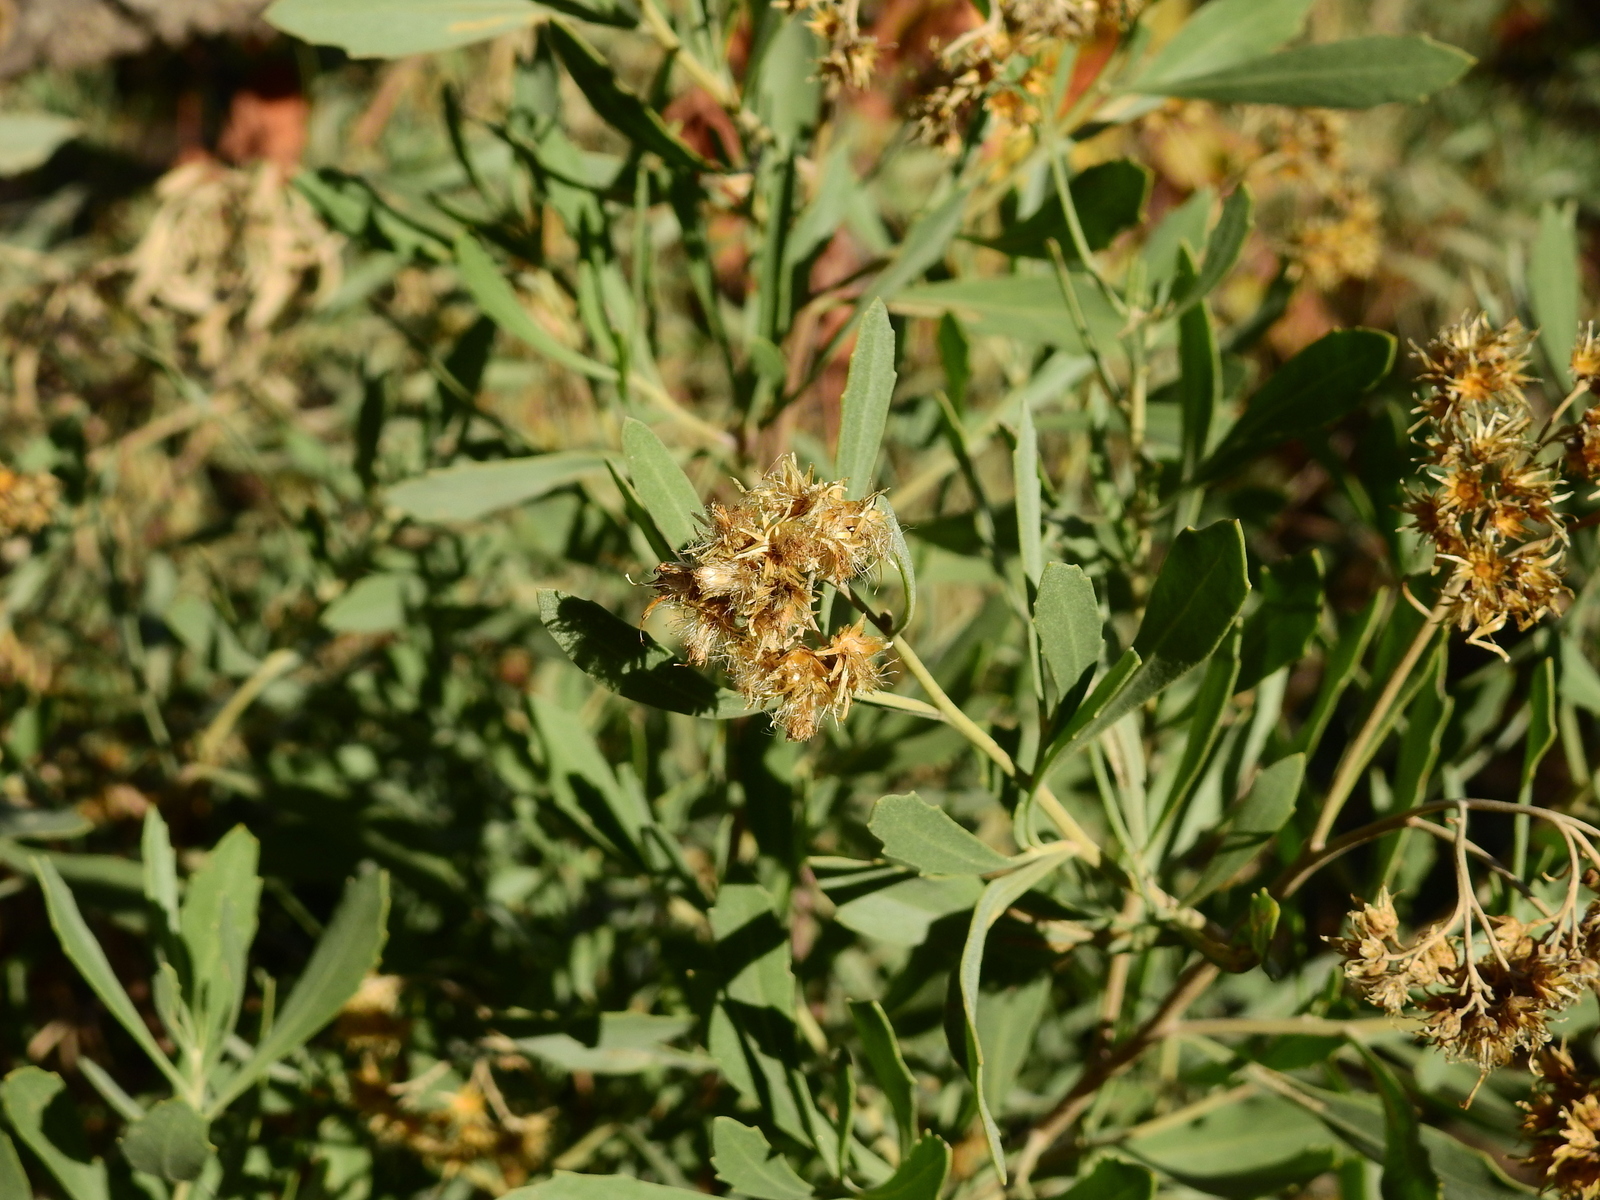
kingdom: Plantae
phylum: Tracheophyta
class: Magnoliopsida
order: Asterales
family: Asteraceae
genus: Tessaria
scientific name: Tessaria absinthioides
